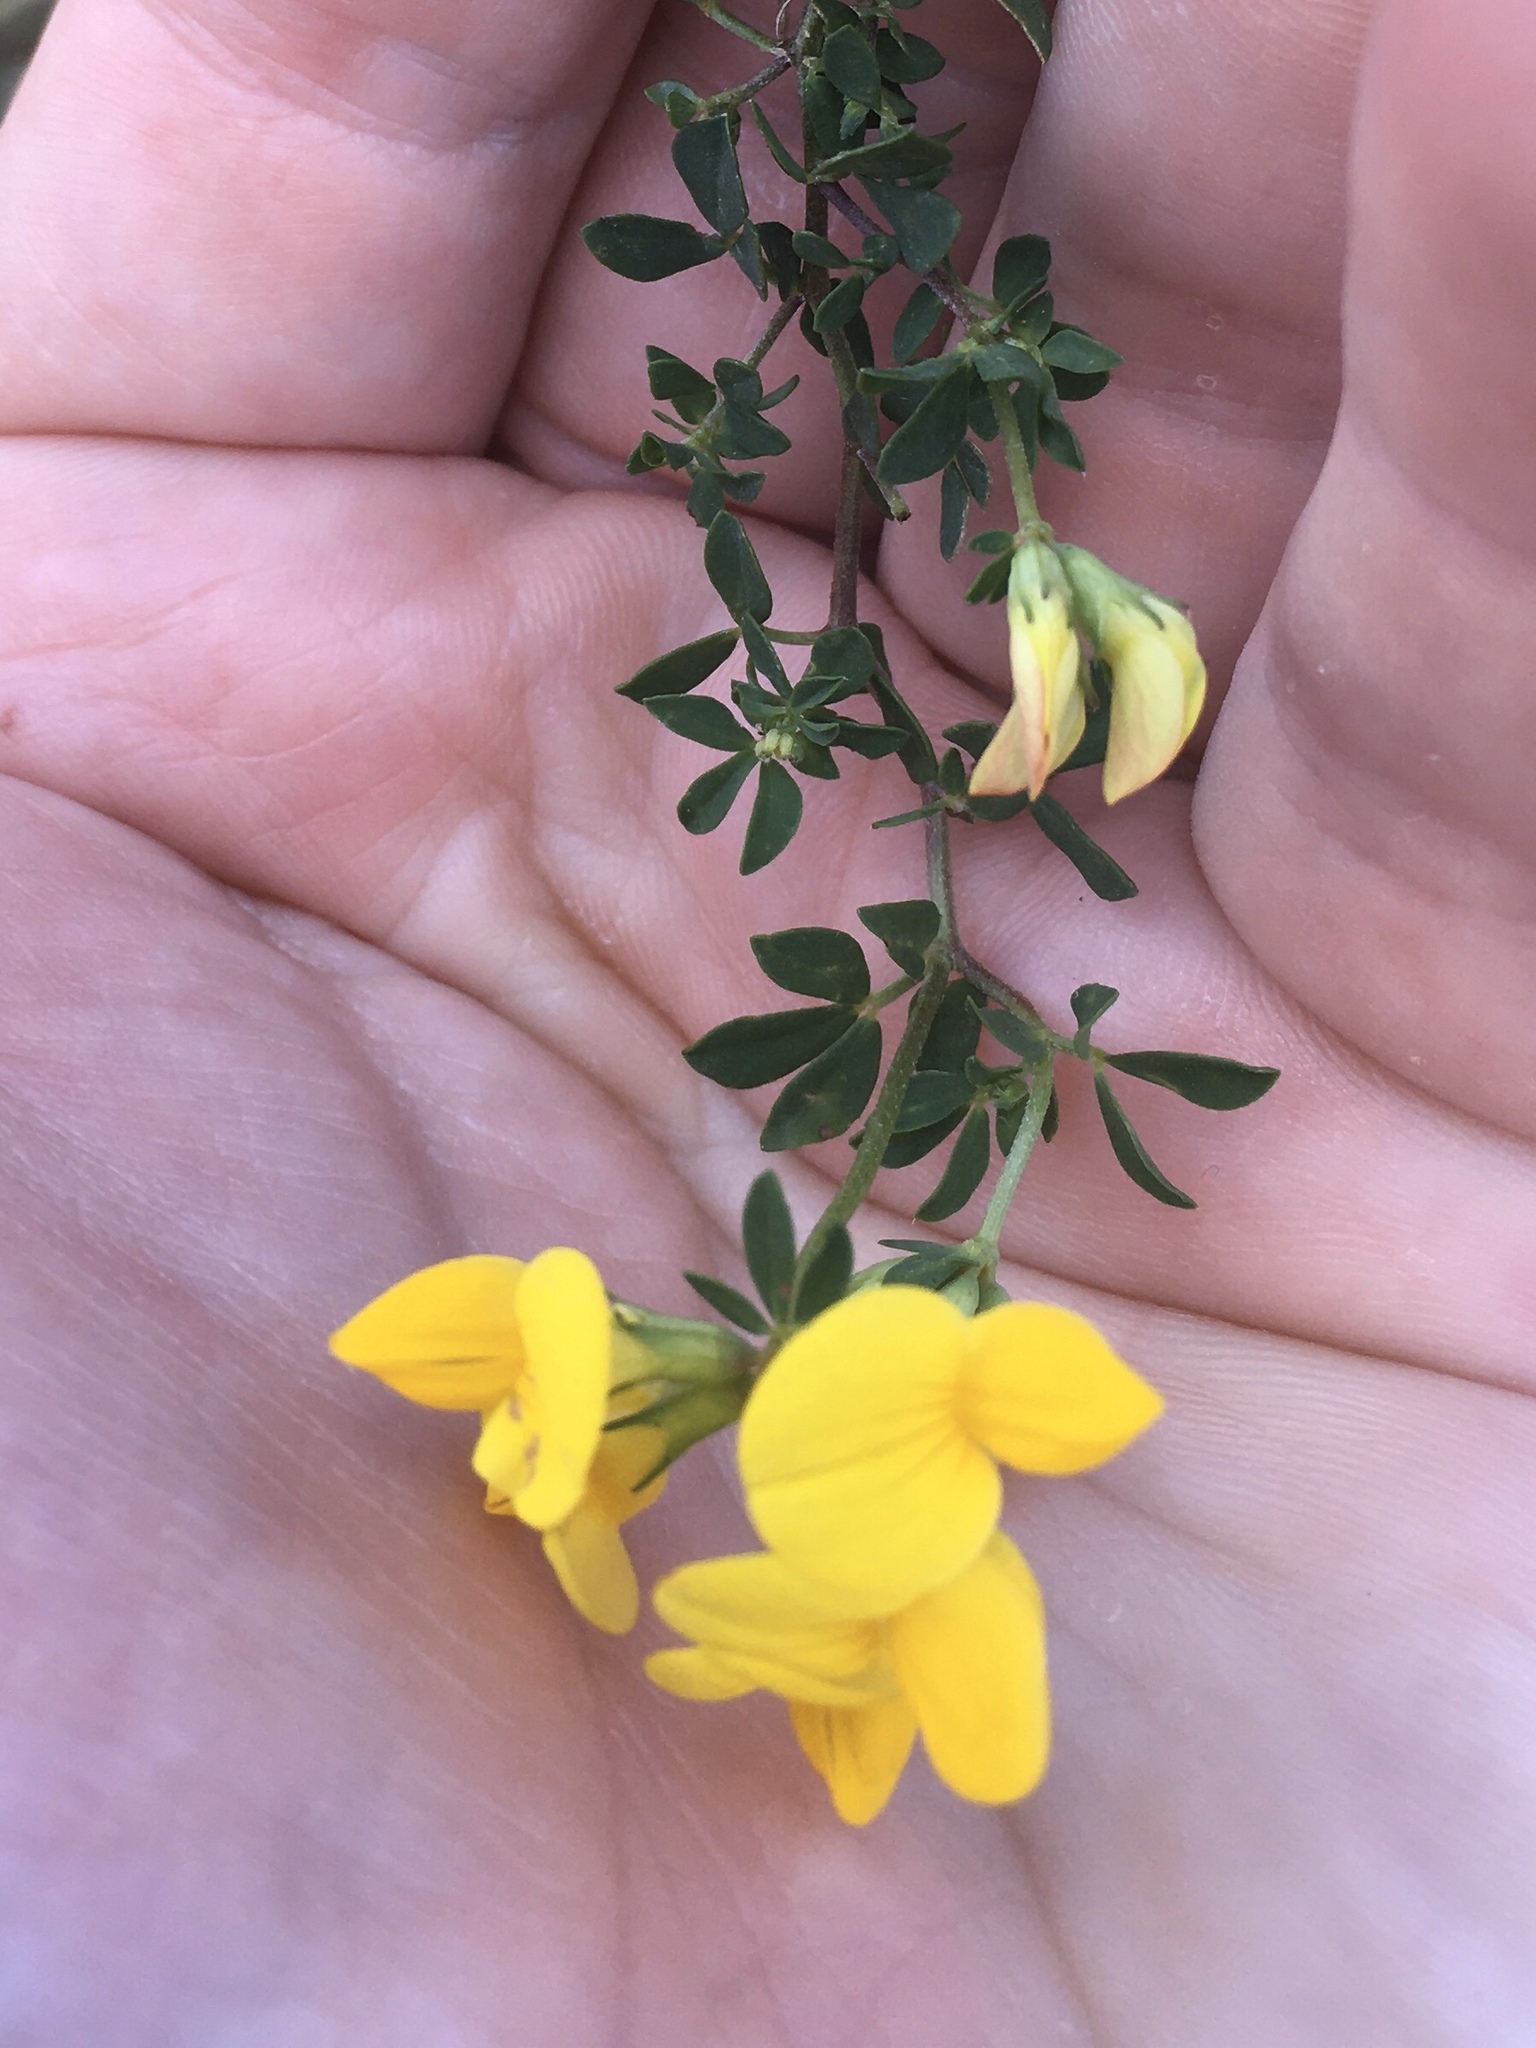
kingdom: Plantae
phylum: Tracheophyta
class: Magnoliopsida
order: Fabales
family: Fabaceae
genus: Lotus
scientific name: Lotus corniculatus
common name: Common bird's-foot-trefoil
